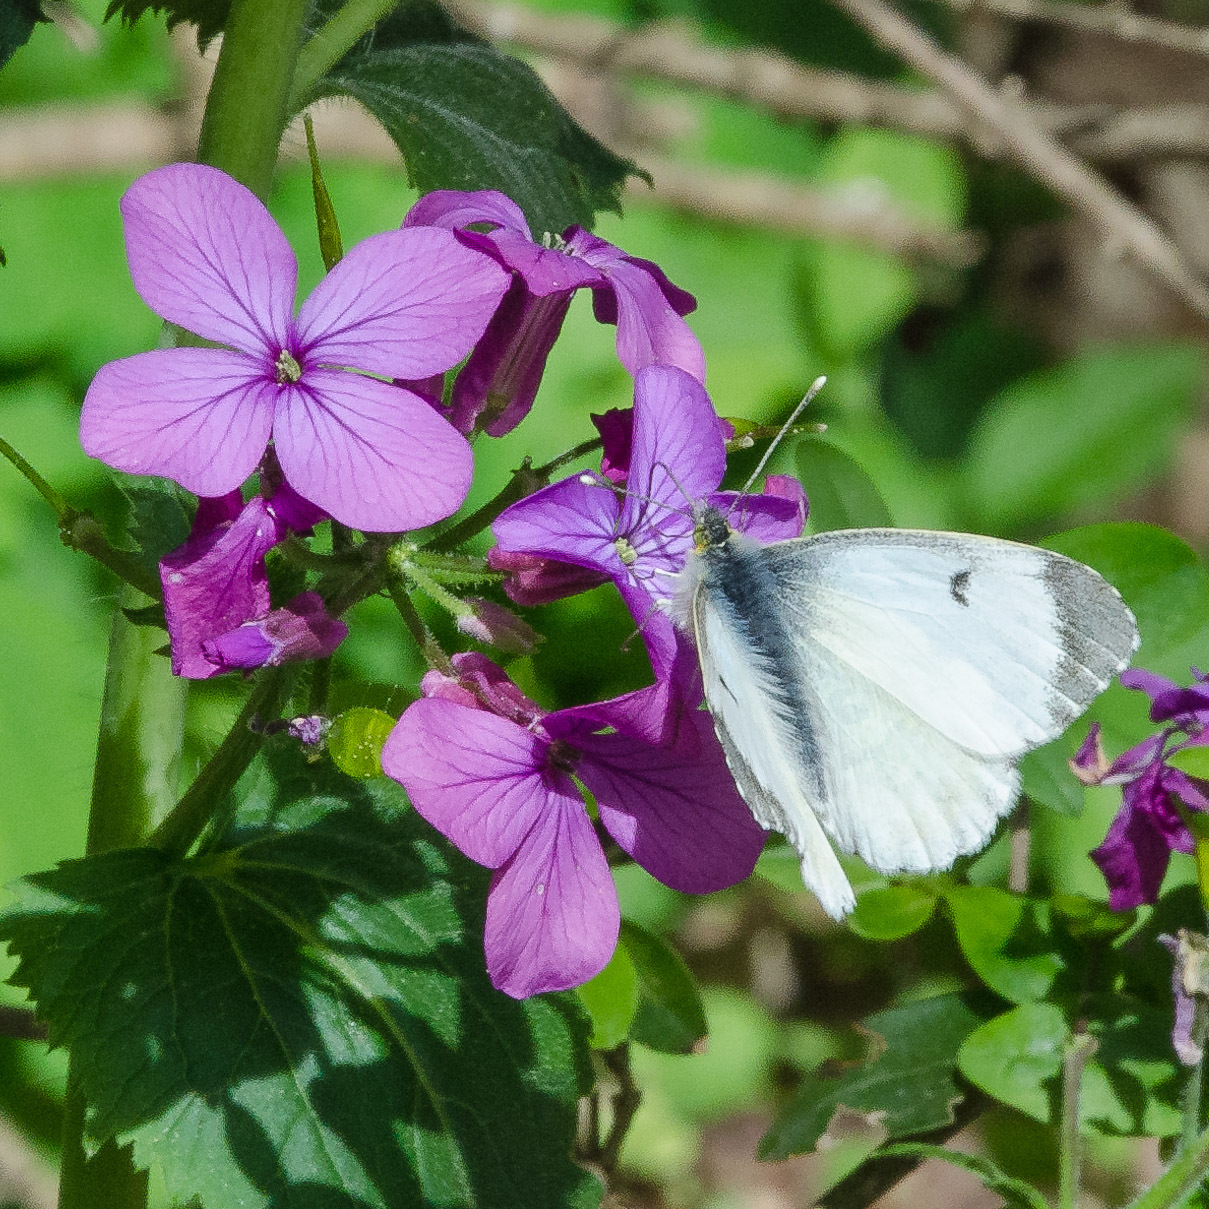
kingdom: Animalia
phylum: Arthropoda
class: Insecta
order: Lepidoptera
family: Pieridae
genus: Anthocharis
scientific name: Anthocharis cardamines
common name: Orange-tip
